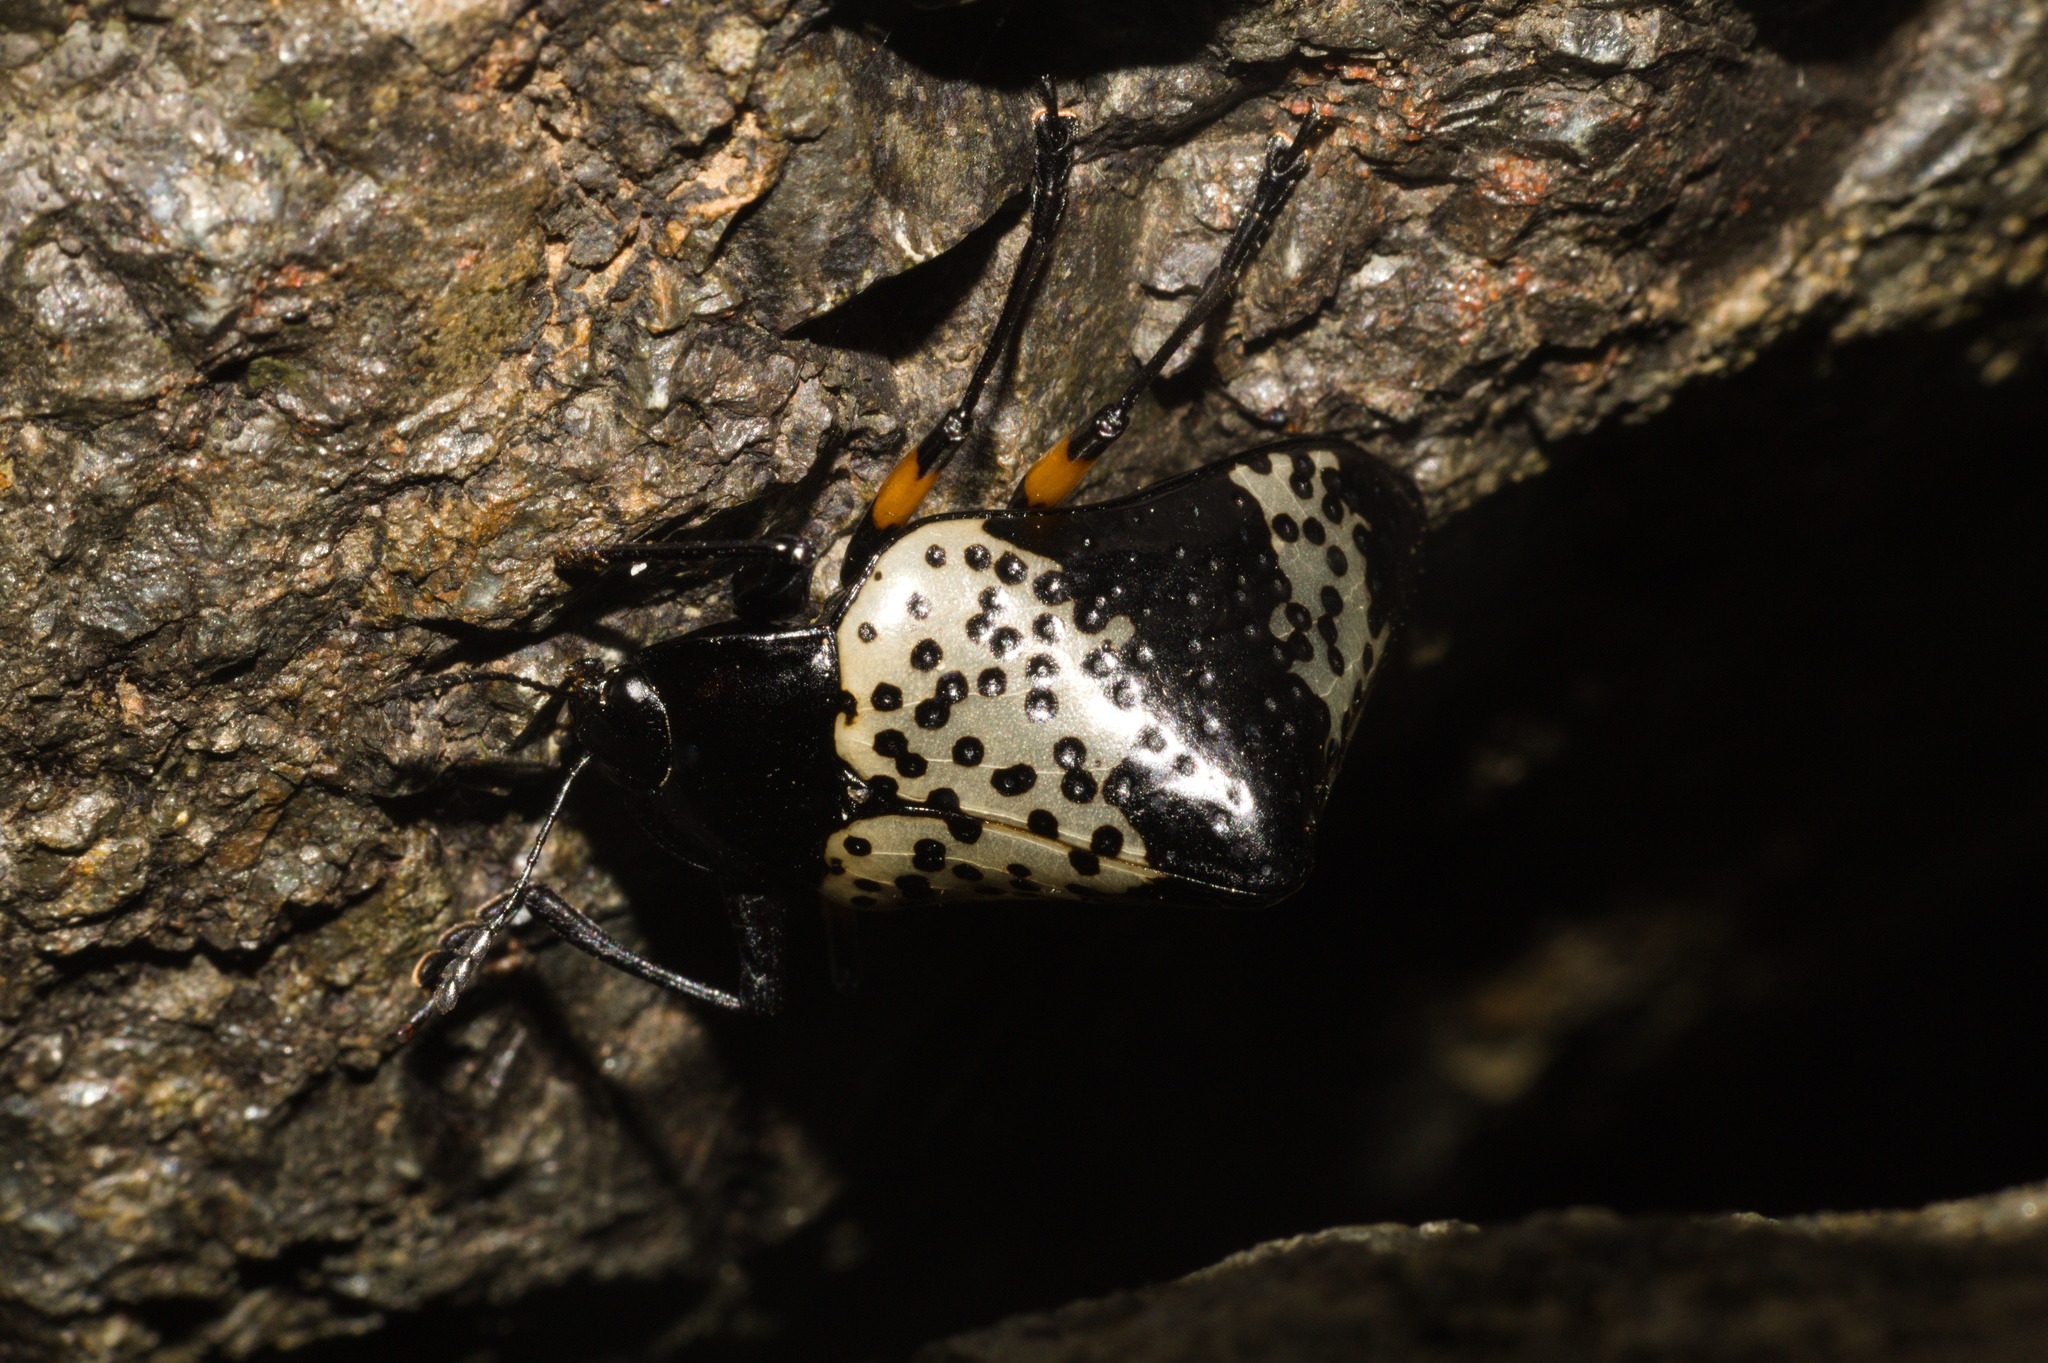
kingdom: Animalia
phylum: Arthropoda
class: Insecta
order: Coleoptera
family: Erotylidae
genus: Gibbifer
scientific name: Gibbifer
